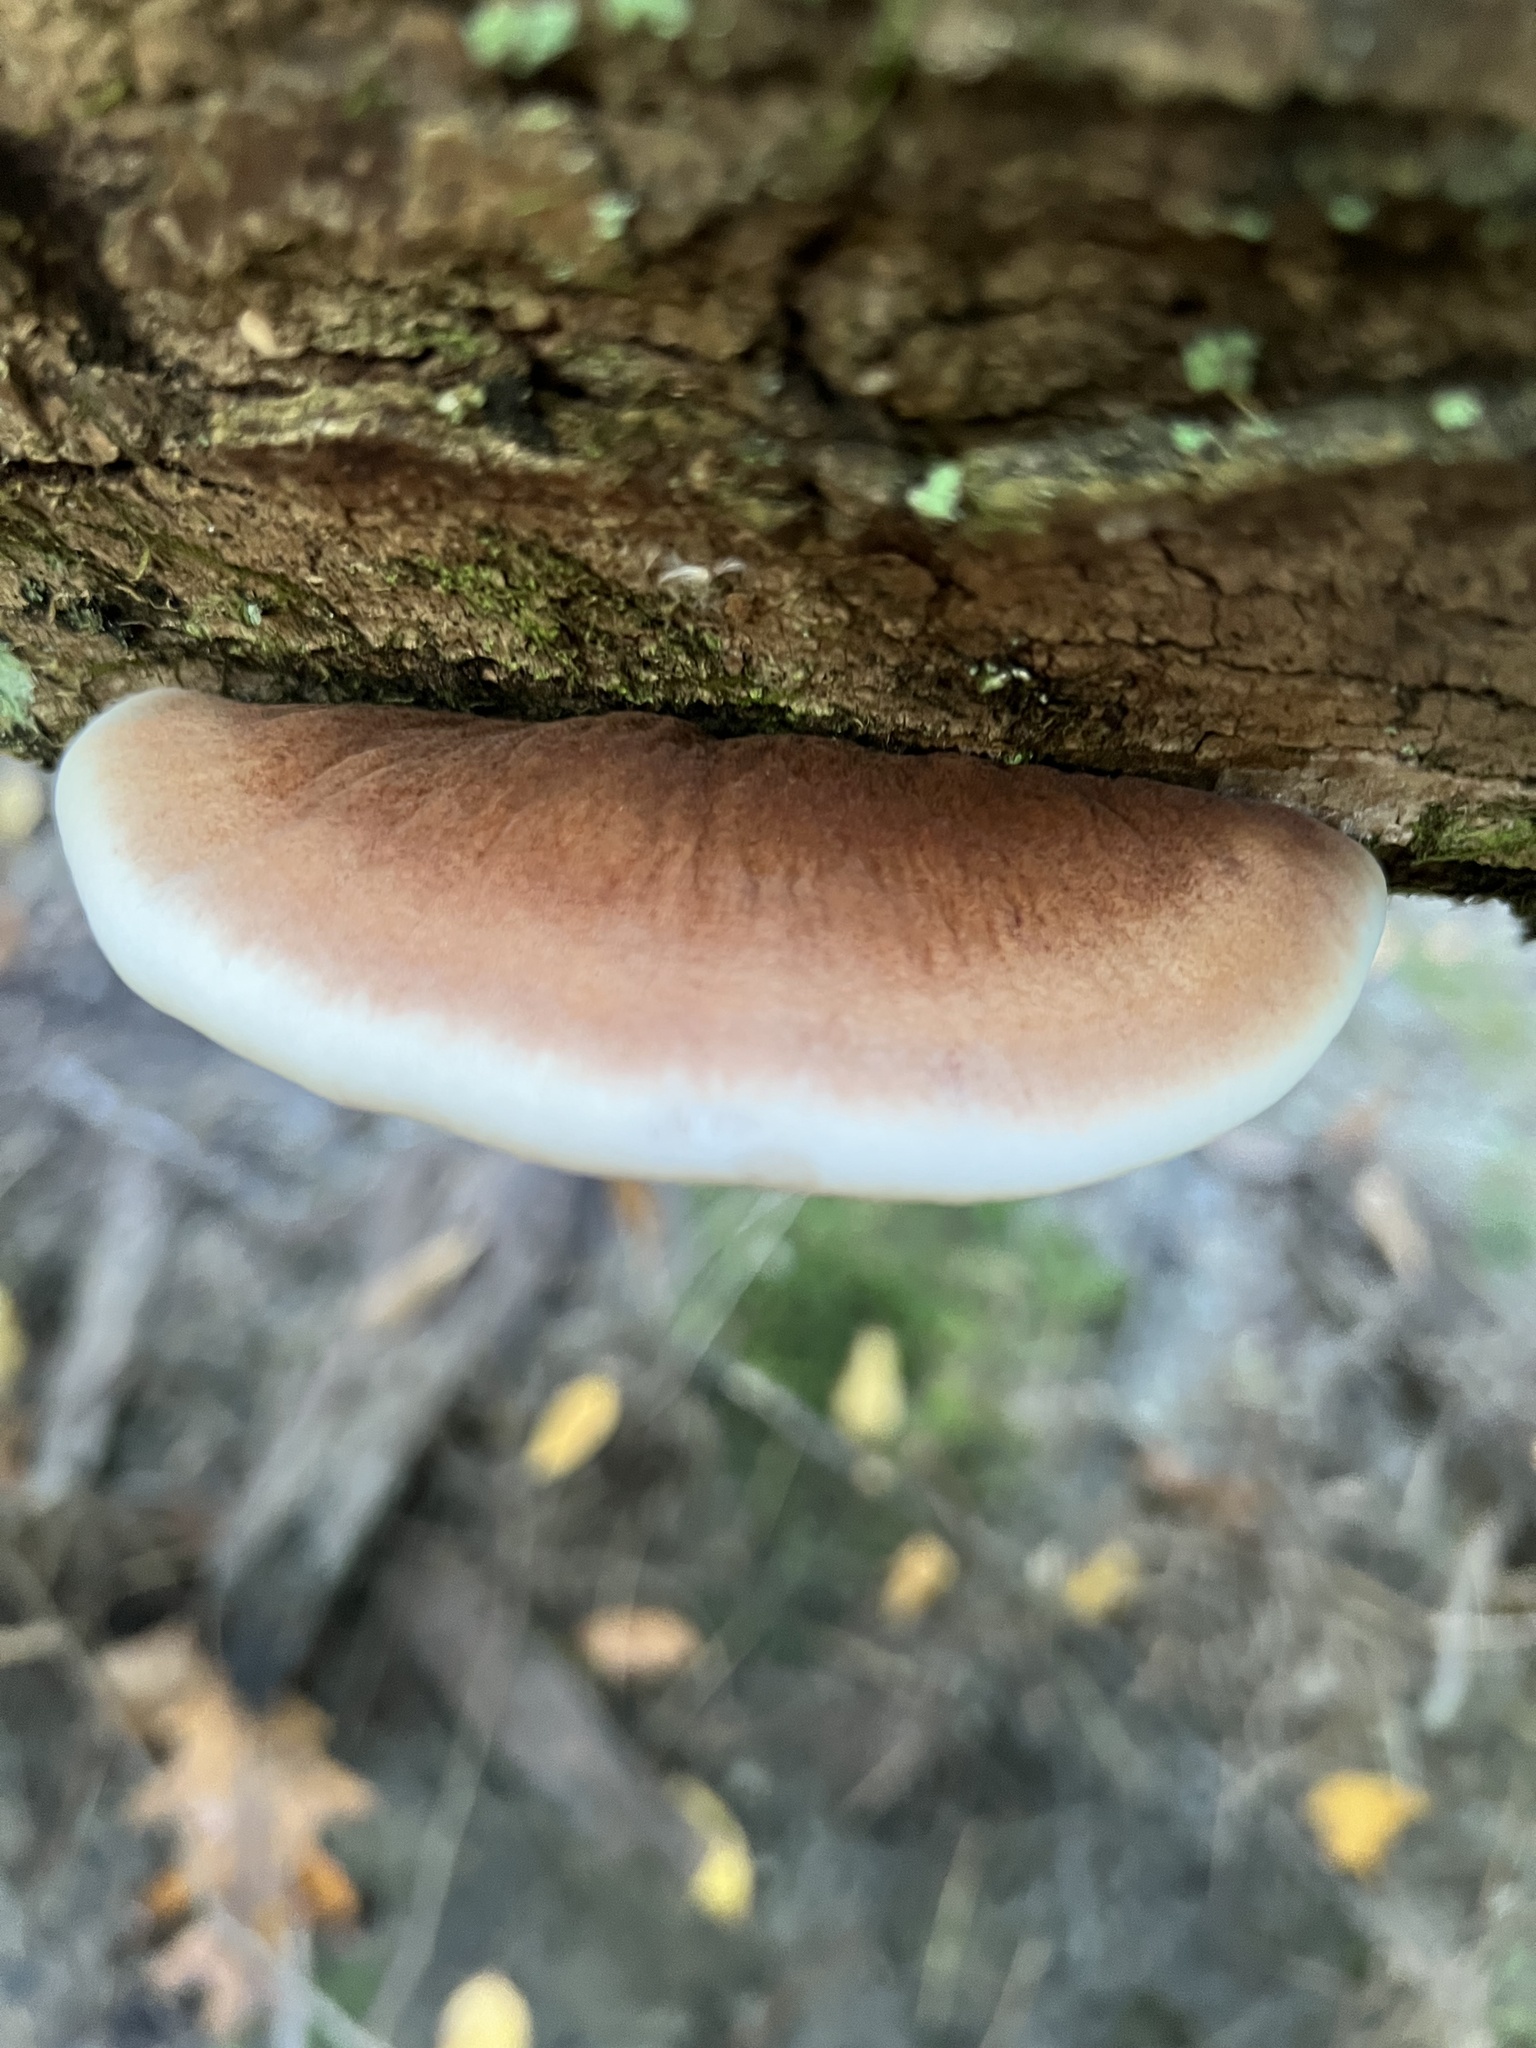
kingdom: Fungi
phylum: Basidiomycota
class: Agaricomycetes
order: Polyporales
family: Ischnodermataceae
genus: Ischnoderma
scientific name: Ischnoderma resinosum
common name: Resinous polypore
